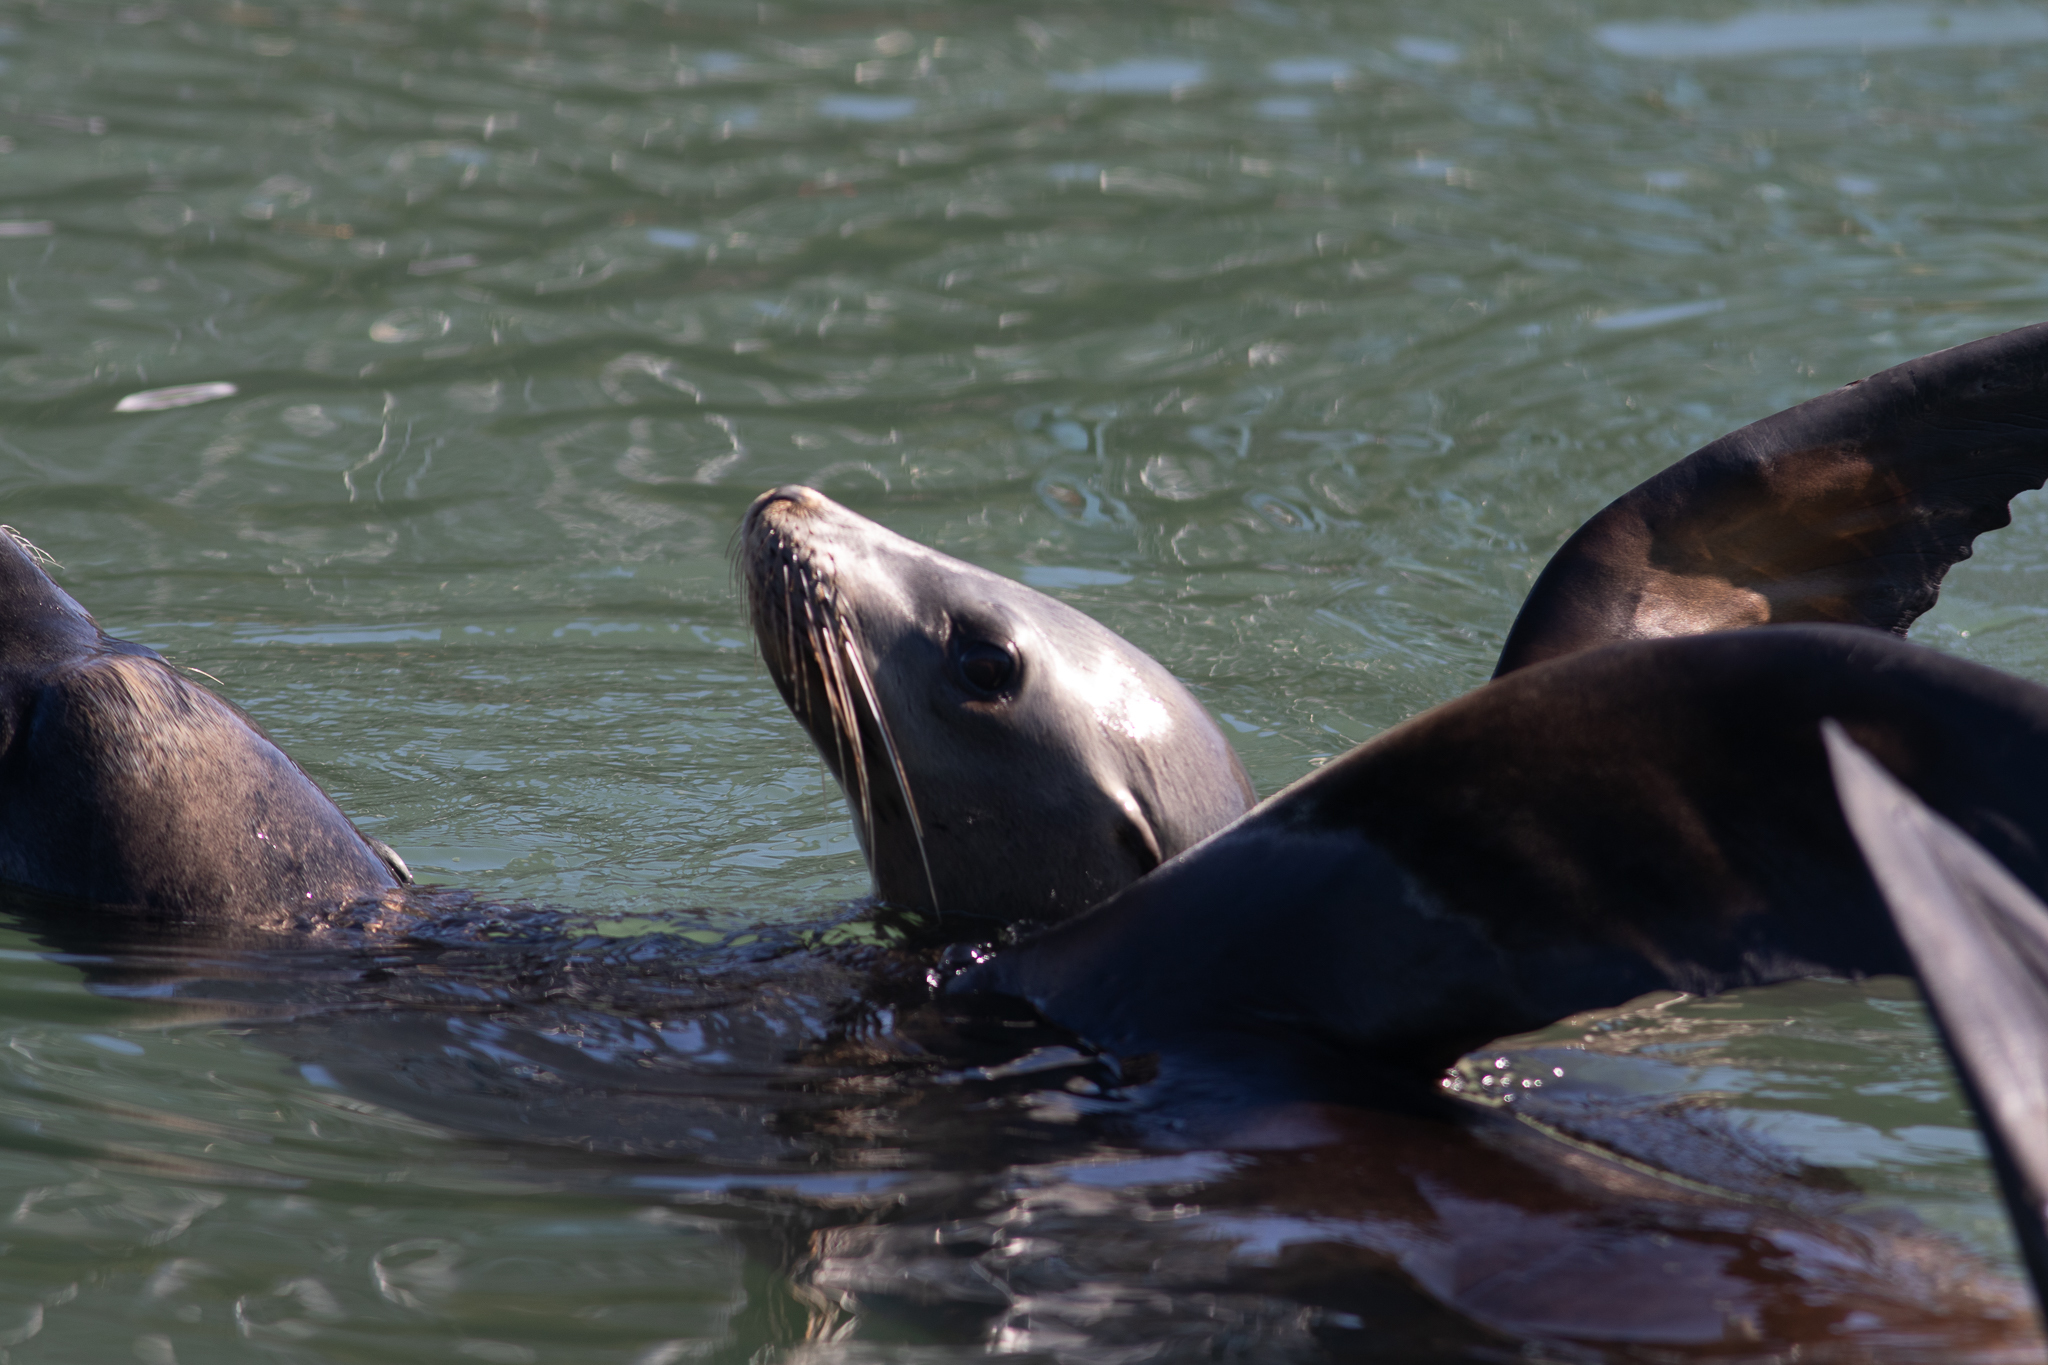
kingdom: Animalia
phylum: Chordata
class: Mammalia
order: Carnivora
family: Otariidae
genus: Zalophus
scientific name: Zalophus californianus
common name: California sea lion
